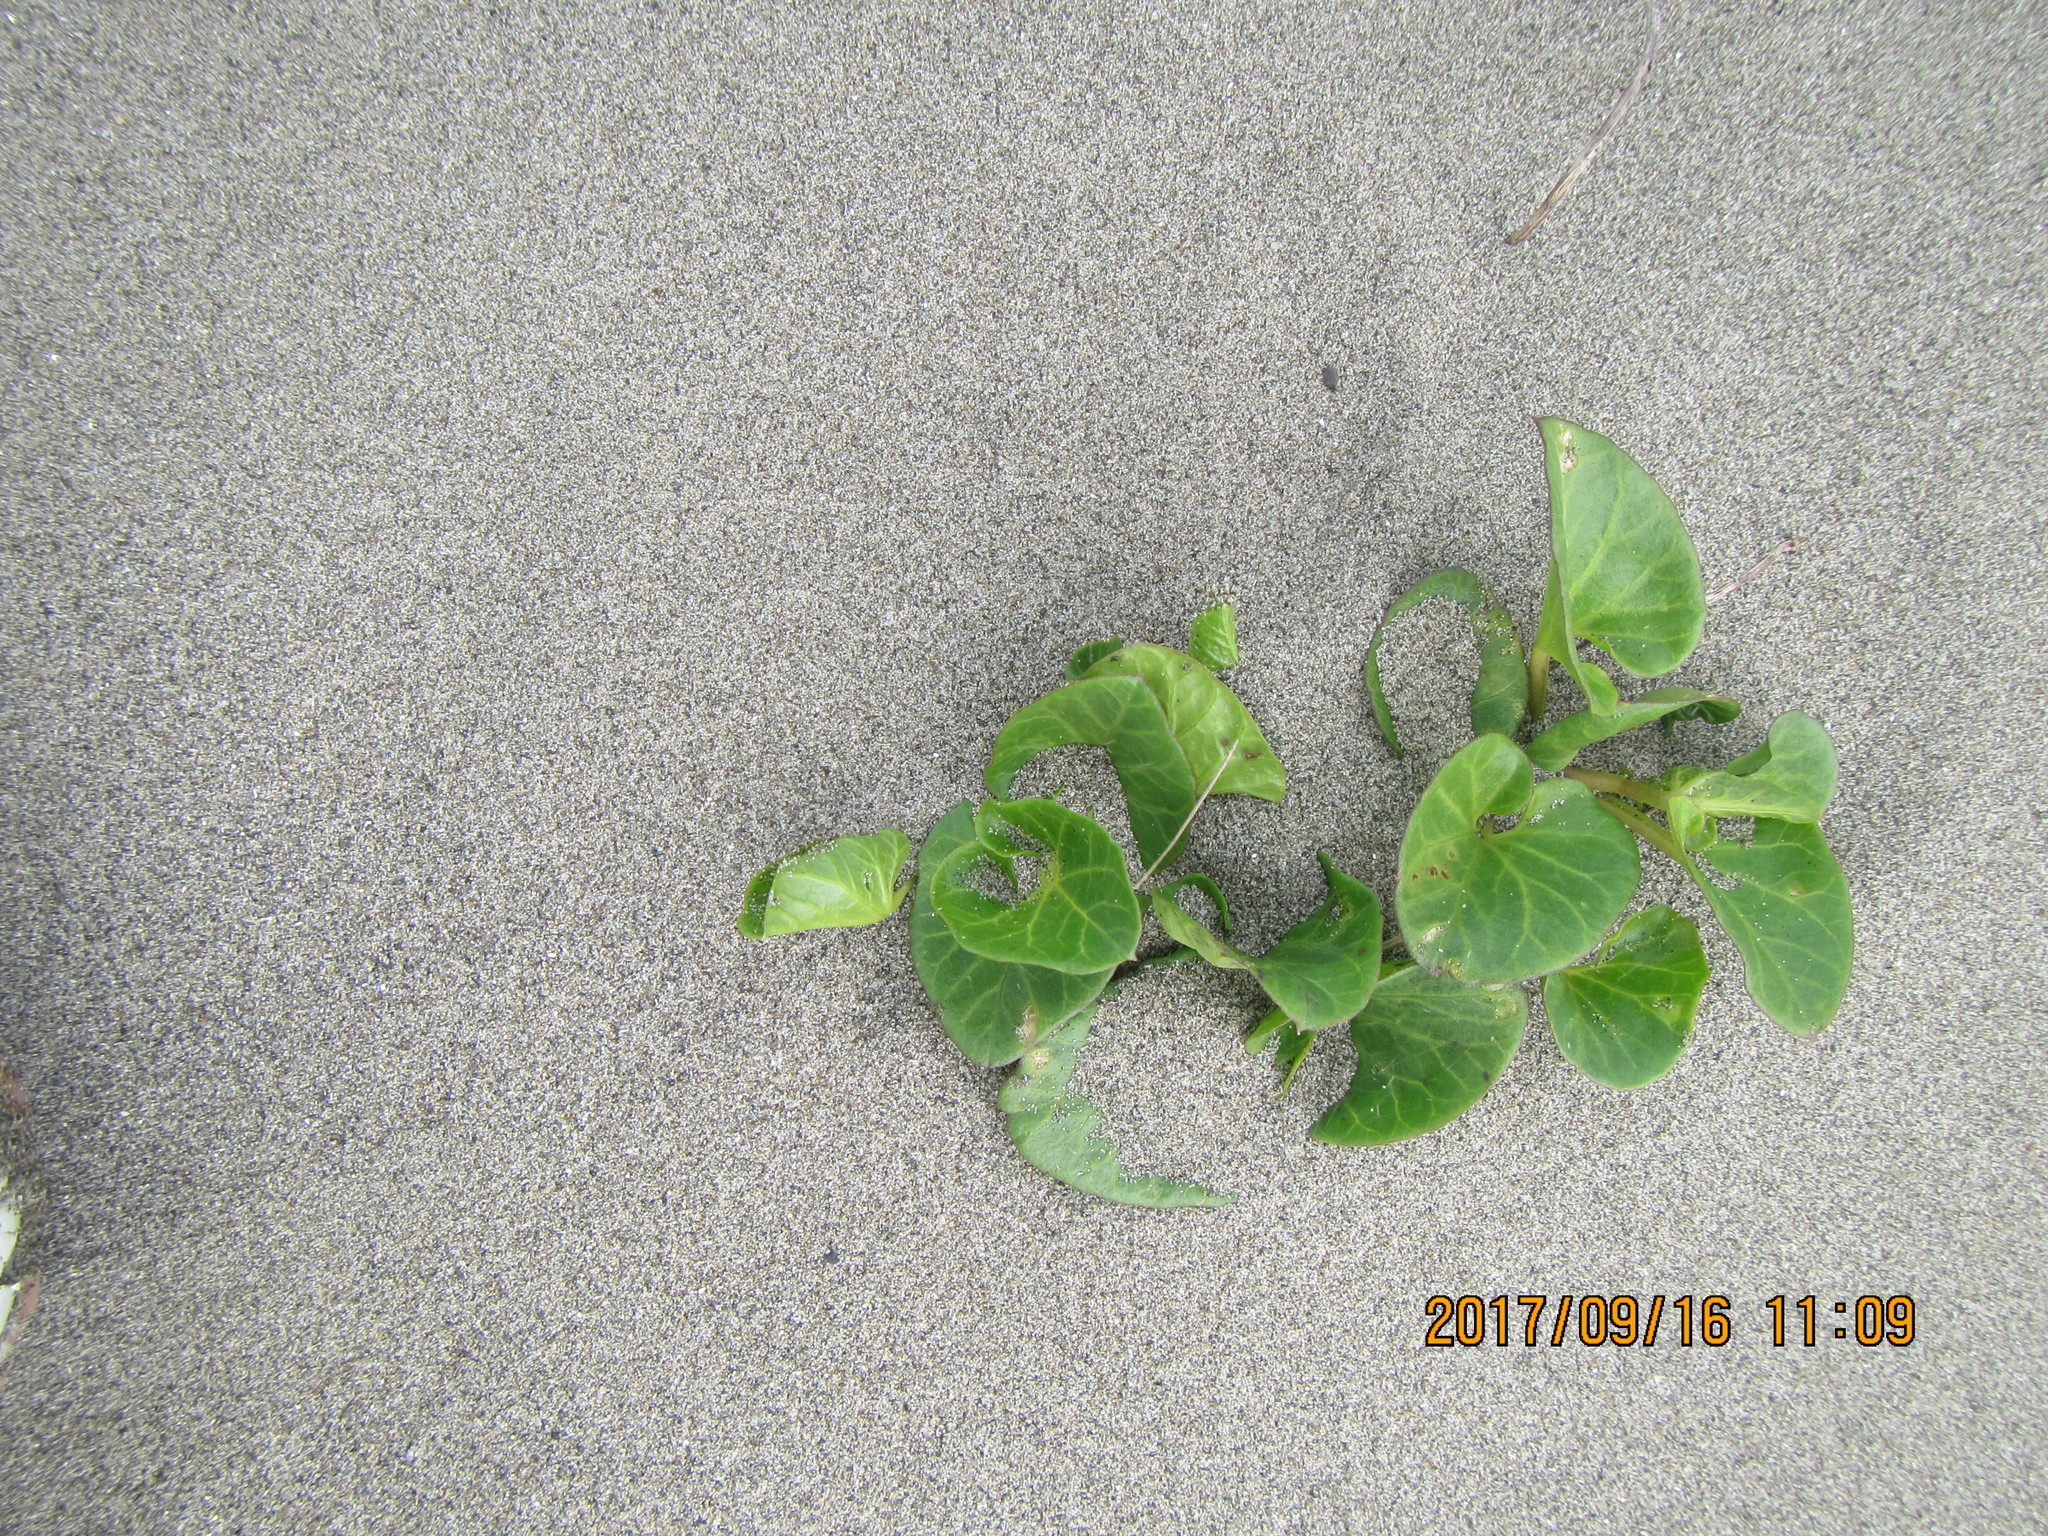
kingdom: Plantae
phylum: Tracheophyta
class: Magnoliopsida
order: Solanales
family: Convolvulaceae
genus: Calystegia
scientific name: Calystegia soldanella
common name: Sea bindweed
